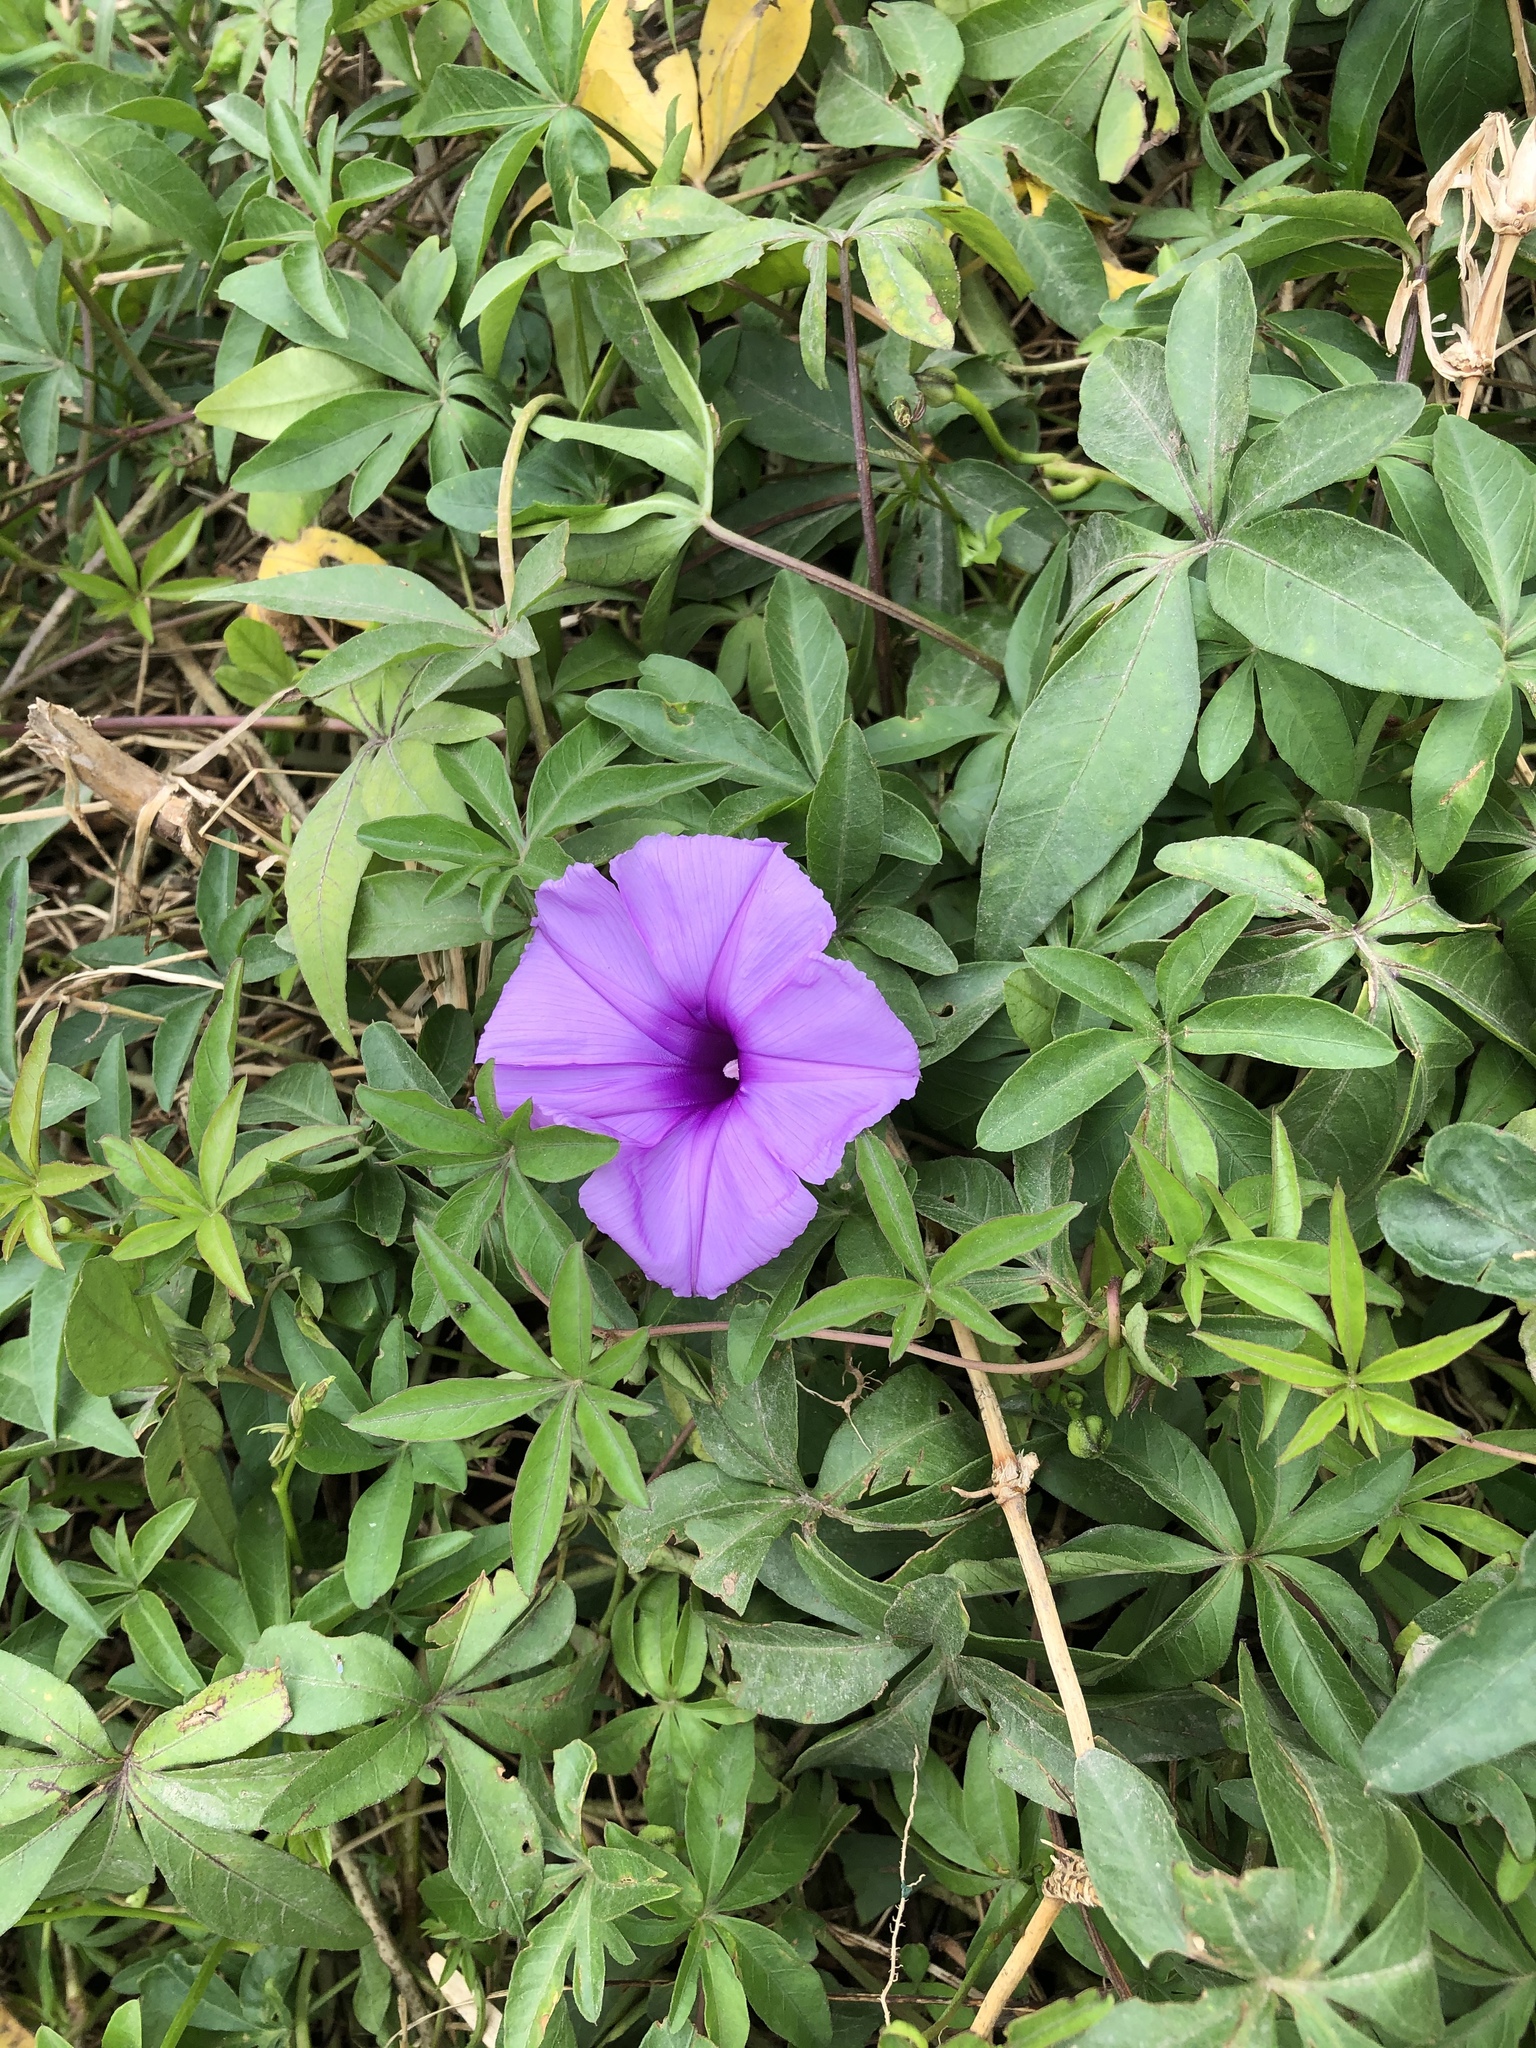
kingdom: Plantae
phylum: Tracheophyta
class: Magnoliopsida
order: Solanales
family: Convolvulaceae
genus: Ipomoea
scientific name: Ipomoea cairica
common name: Mile a minute vine
